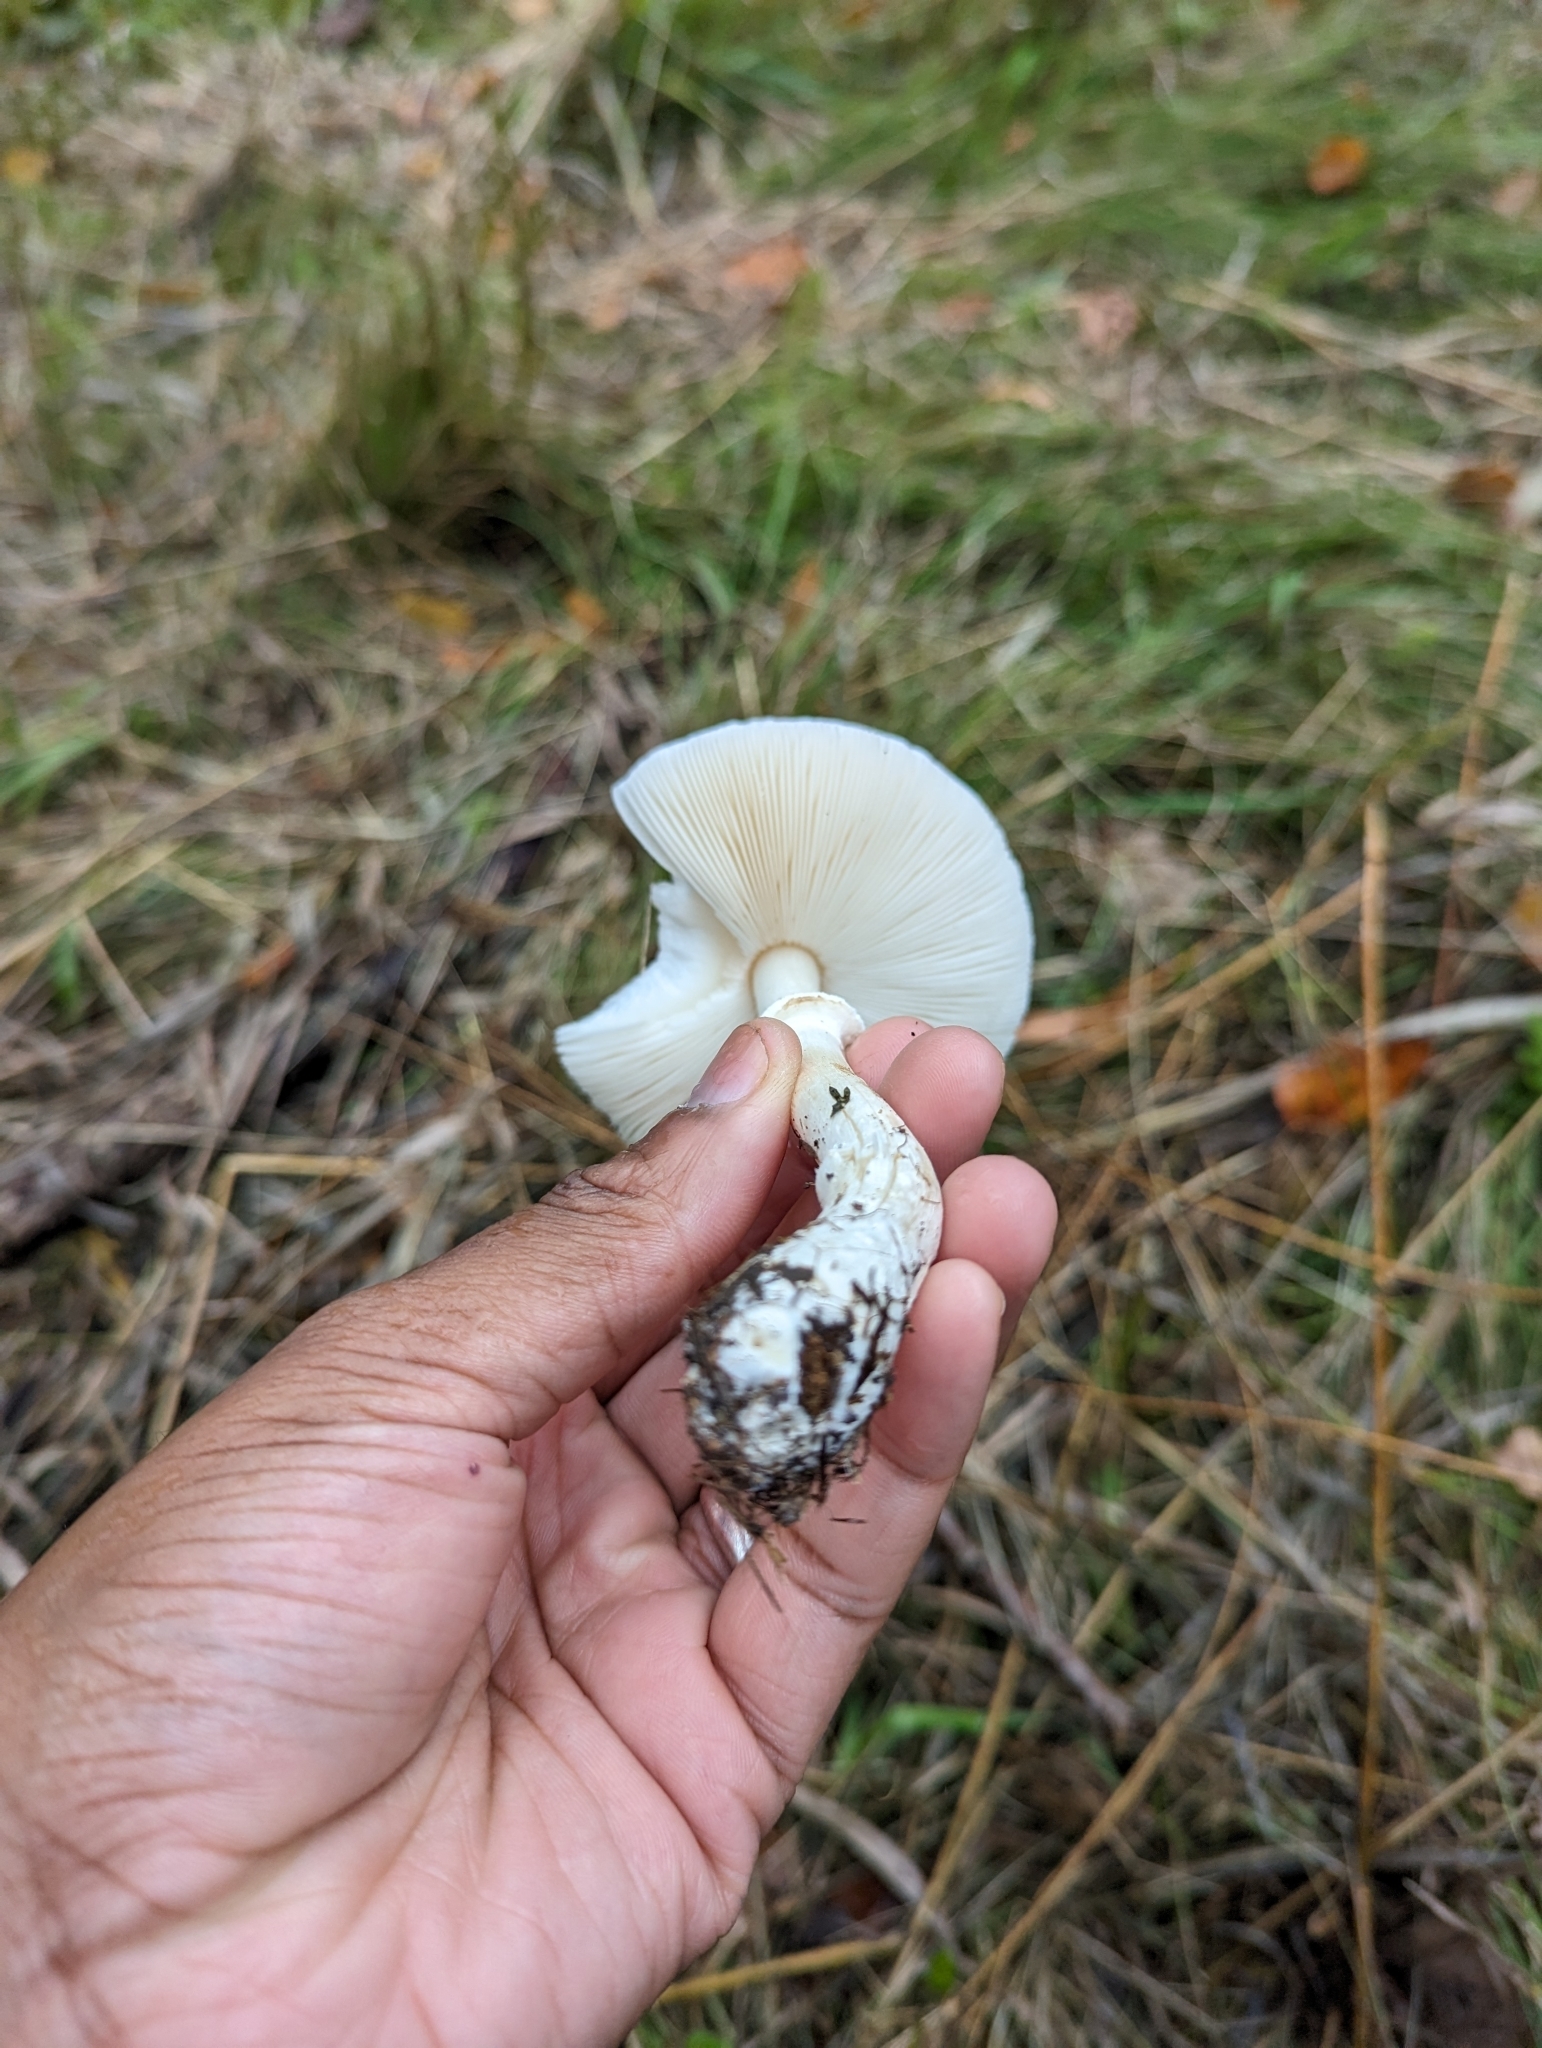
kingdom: Fungi
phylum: Basidiomycota
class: Agaricomycetes
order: Agaricales
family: Agaricaceae
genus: Leucoagaricus
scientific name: Leucoagaricus leucothites
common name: White dapperling
